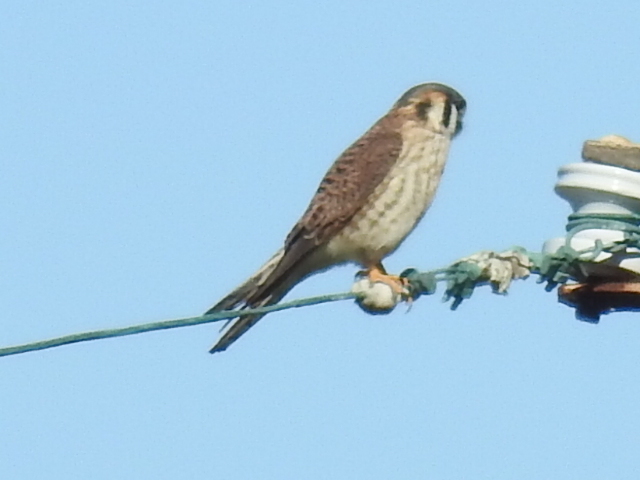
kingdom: Animalia
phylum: Chordata
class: Aves
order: Falconiformes
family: Falconidae
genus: Falco
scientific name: Falco sparverius
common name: American kestrel
